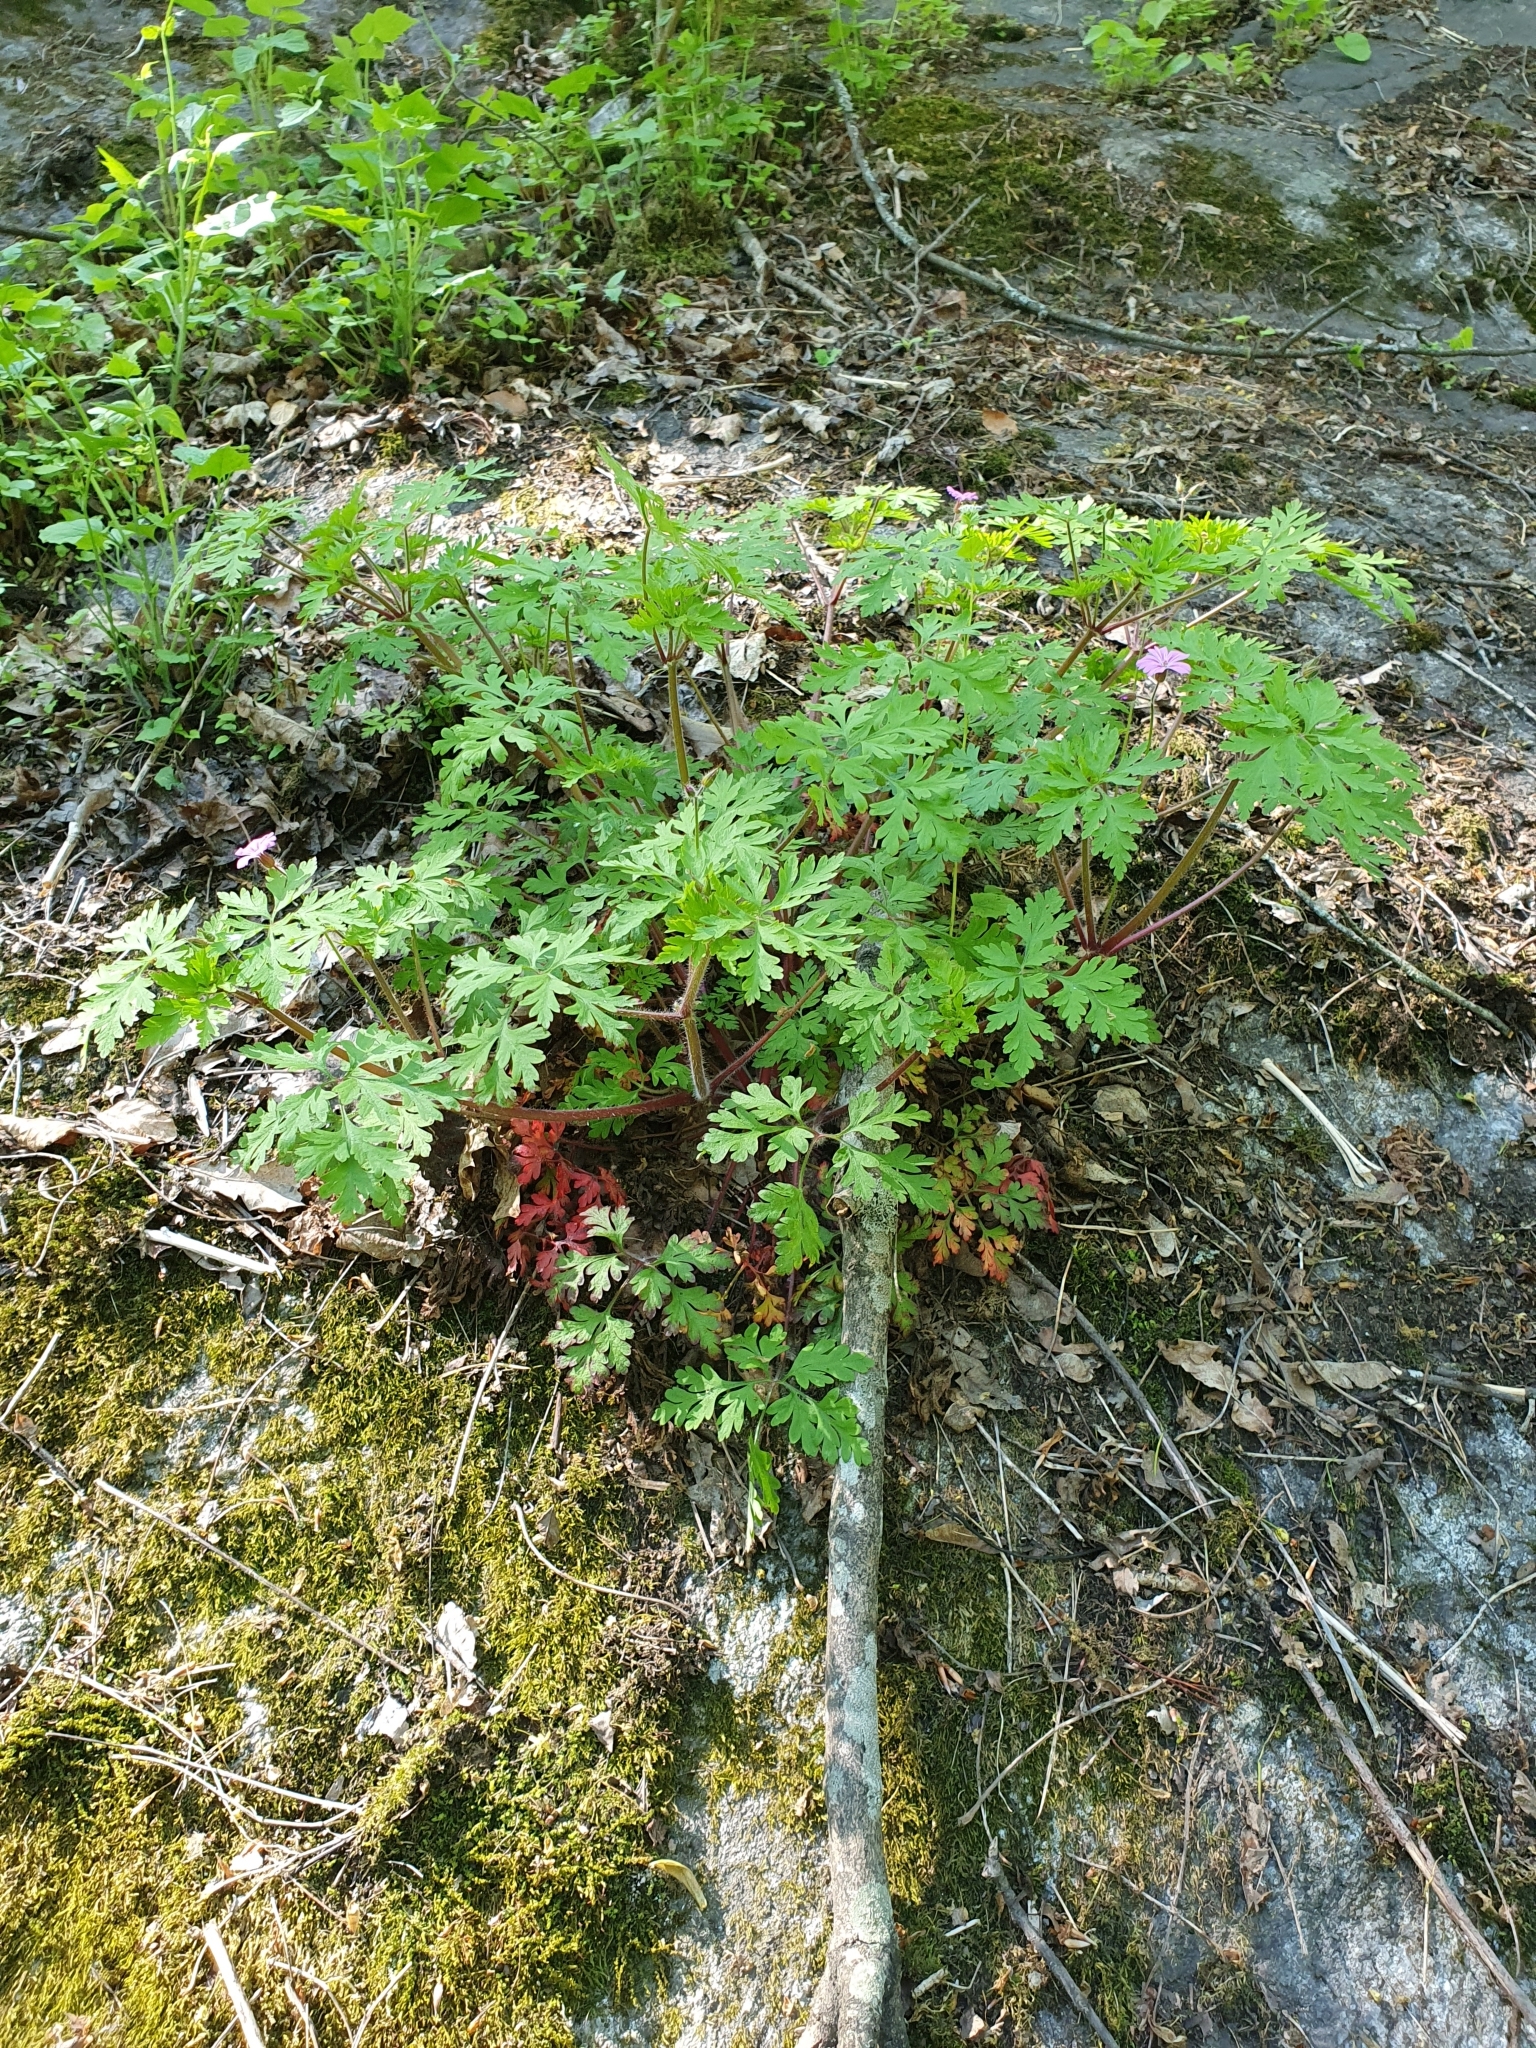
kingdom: Plantae
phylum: Tracheophyta
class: Magnoliopsida
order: Geraniales
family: Geraniaceae
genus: Geranium
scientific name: Geranium robertianum
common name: Herb-robert
